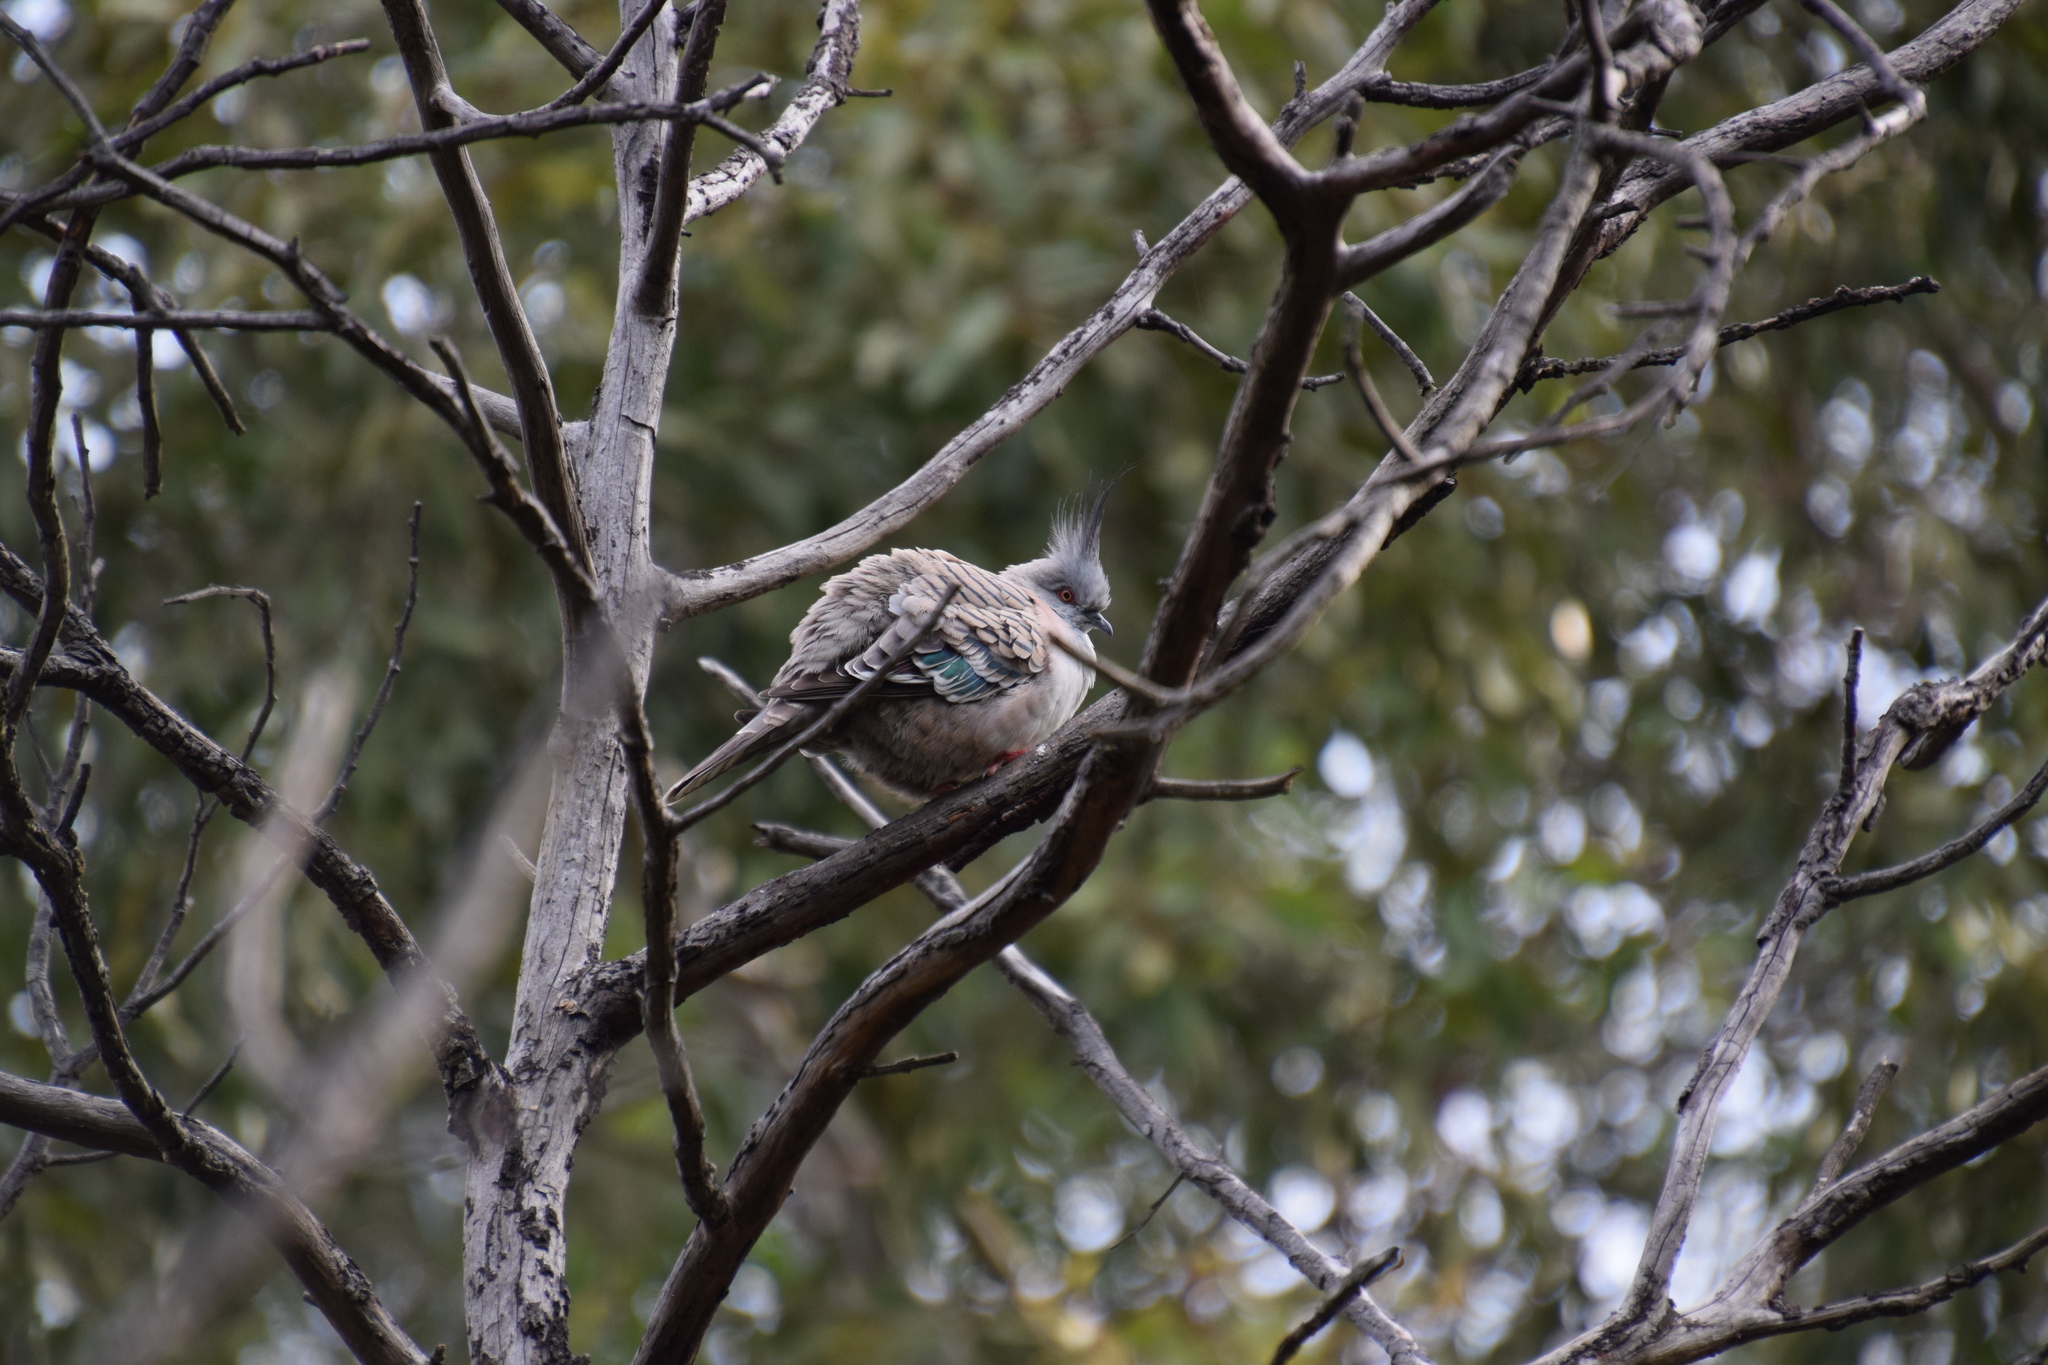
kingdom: Animalia
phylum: Chordata
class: Aves
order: Columbiformes
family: Columbidae
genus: Ocyphaps
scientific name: Ocyphaps lophotes
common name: Crested pigeon
